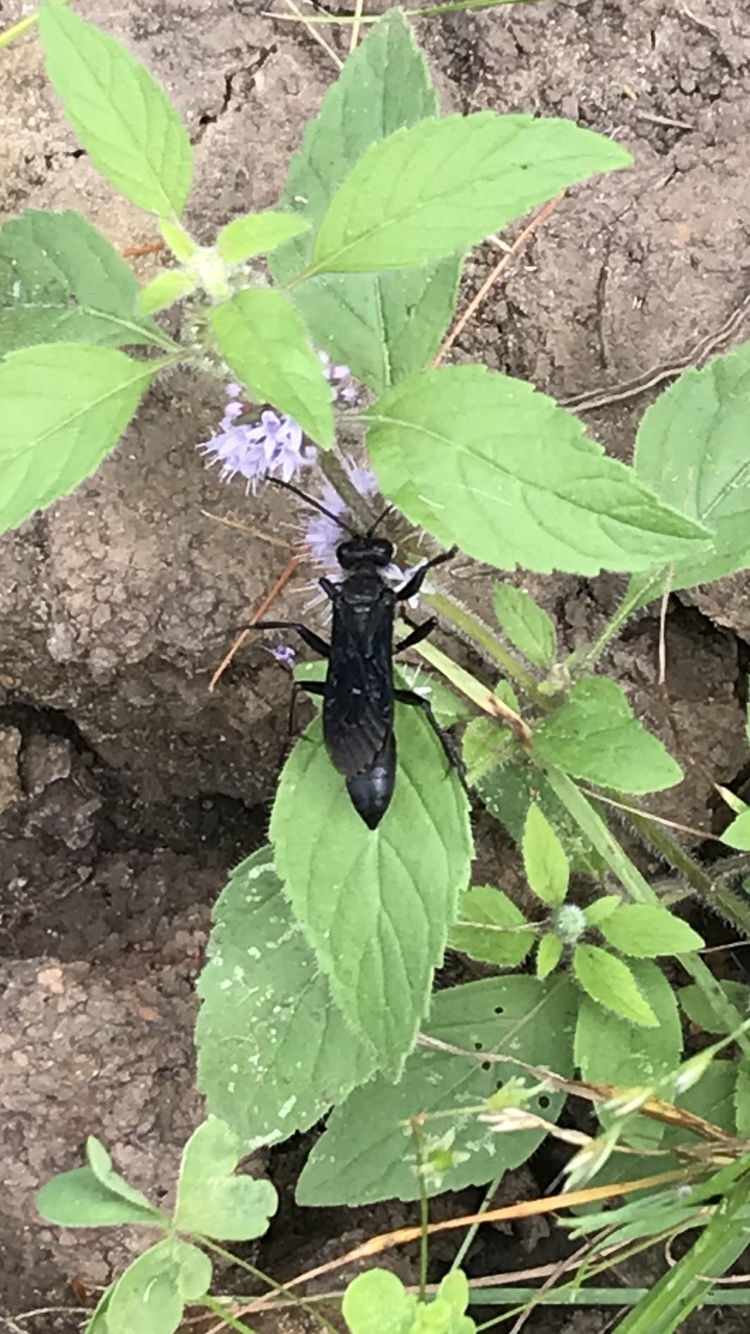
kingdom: Animalia
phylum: Arthropoda
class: Insecta
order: Hymenoptera
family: Sphecidae
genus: Sphex
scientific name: Sphex pensylvanicus
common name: Great black digger wasp
